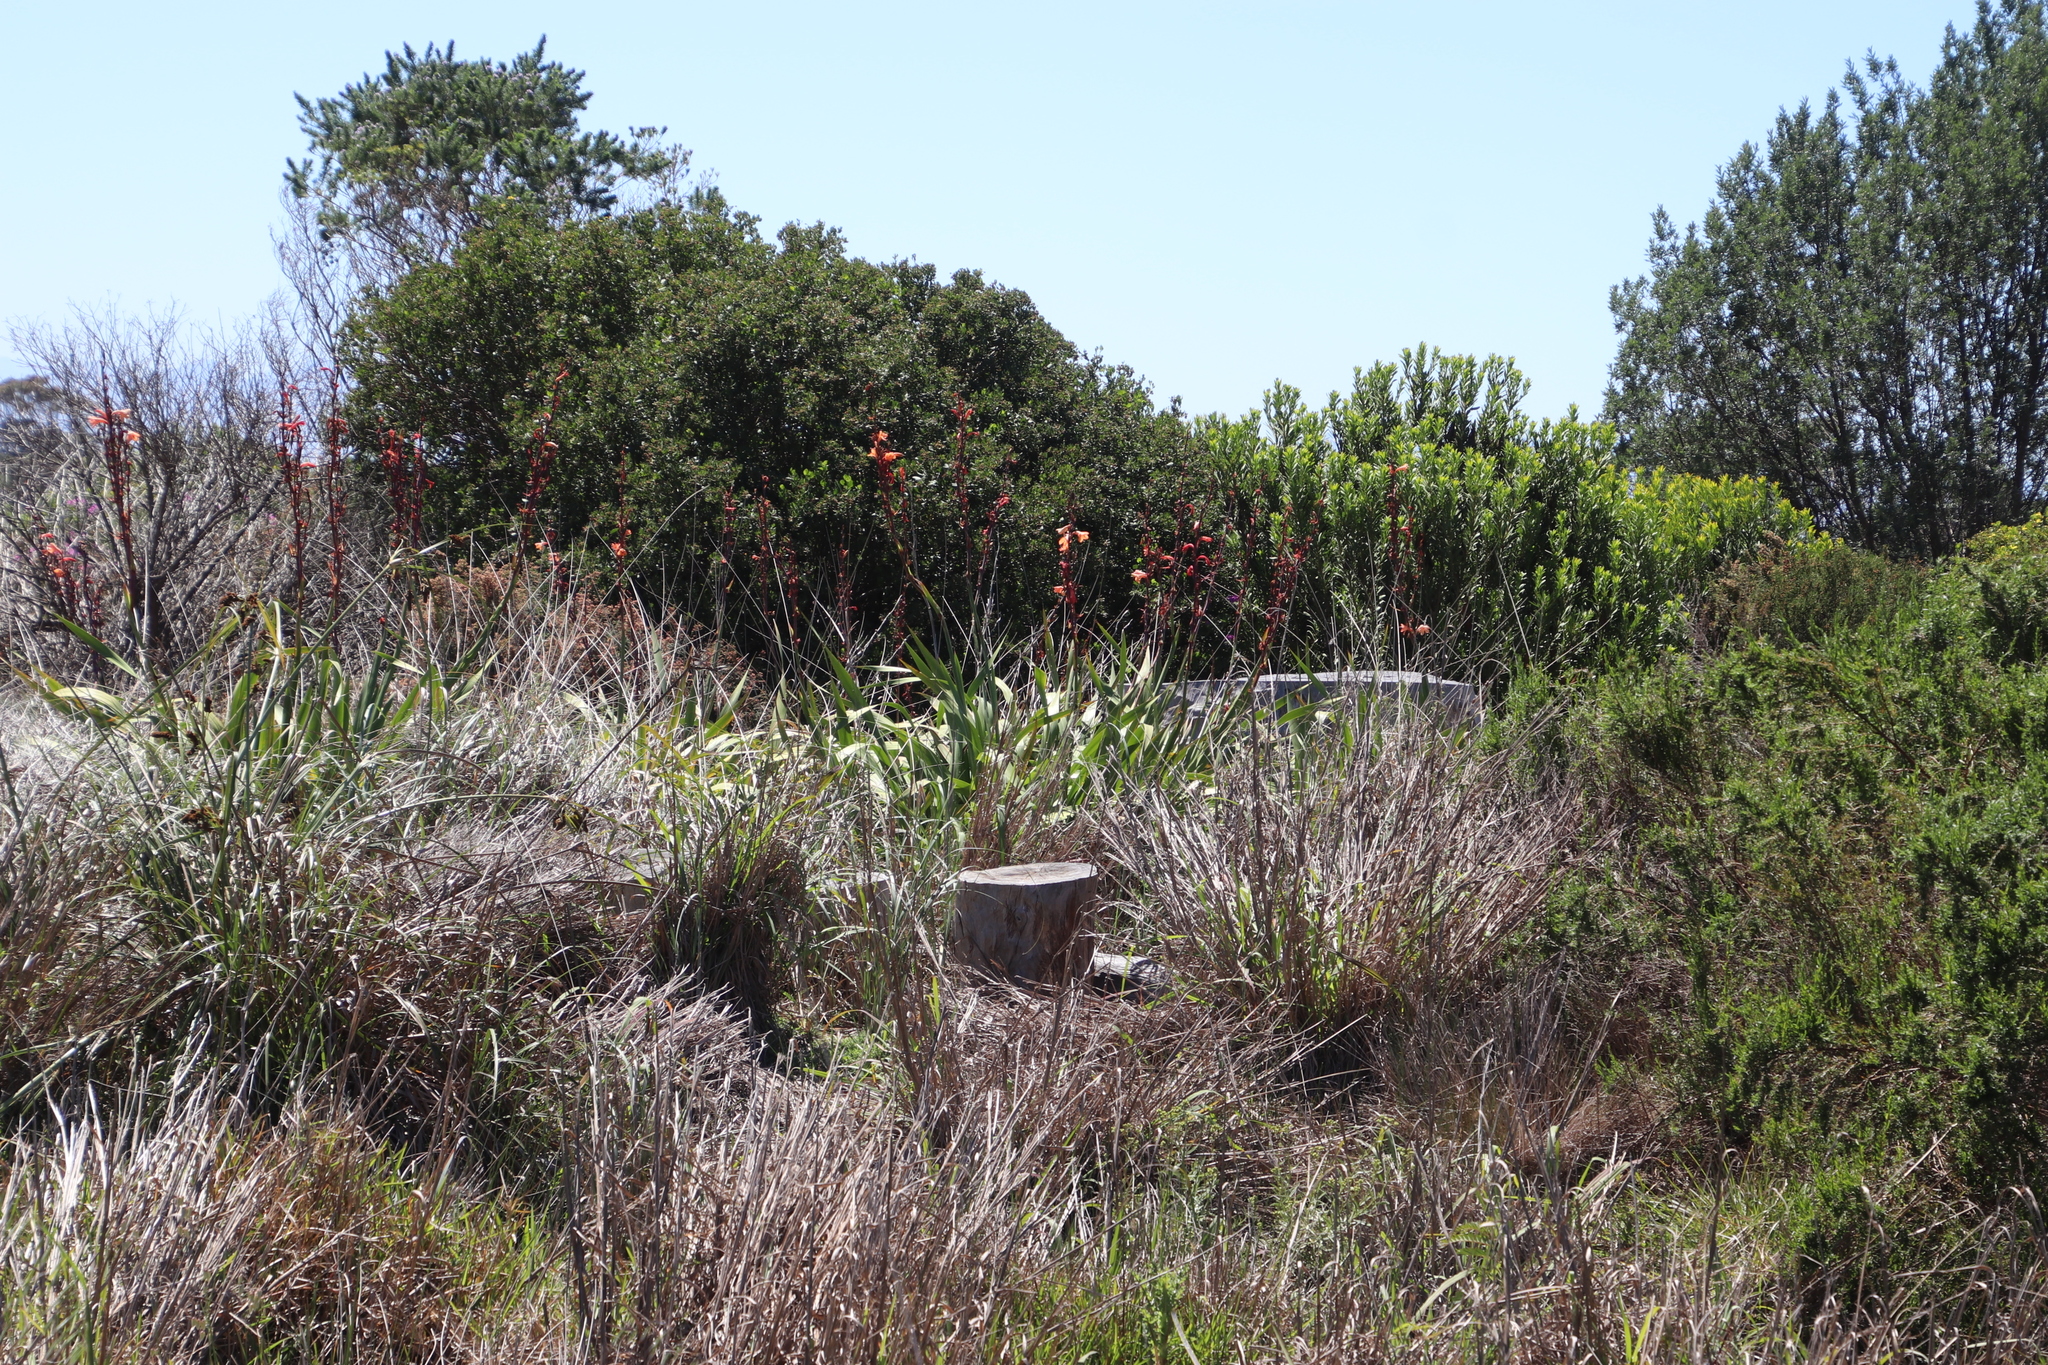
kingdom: Plantae
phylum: Tracheophyta
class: Liliopsida
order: Asparagales
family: Iridaceae
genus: Watsonia
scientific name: Watsonia meriana
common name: Bulbil bugle-lily
